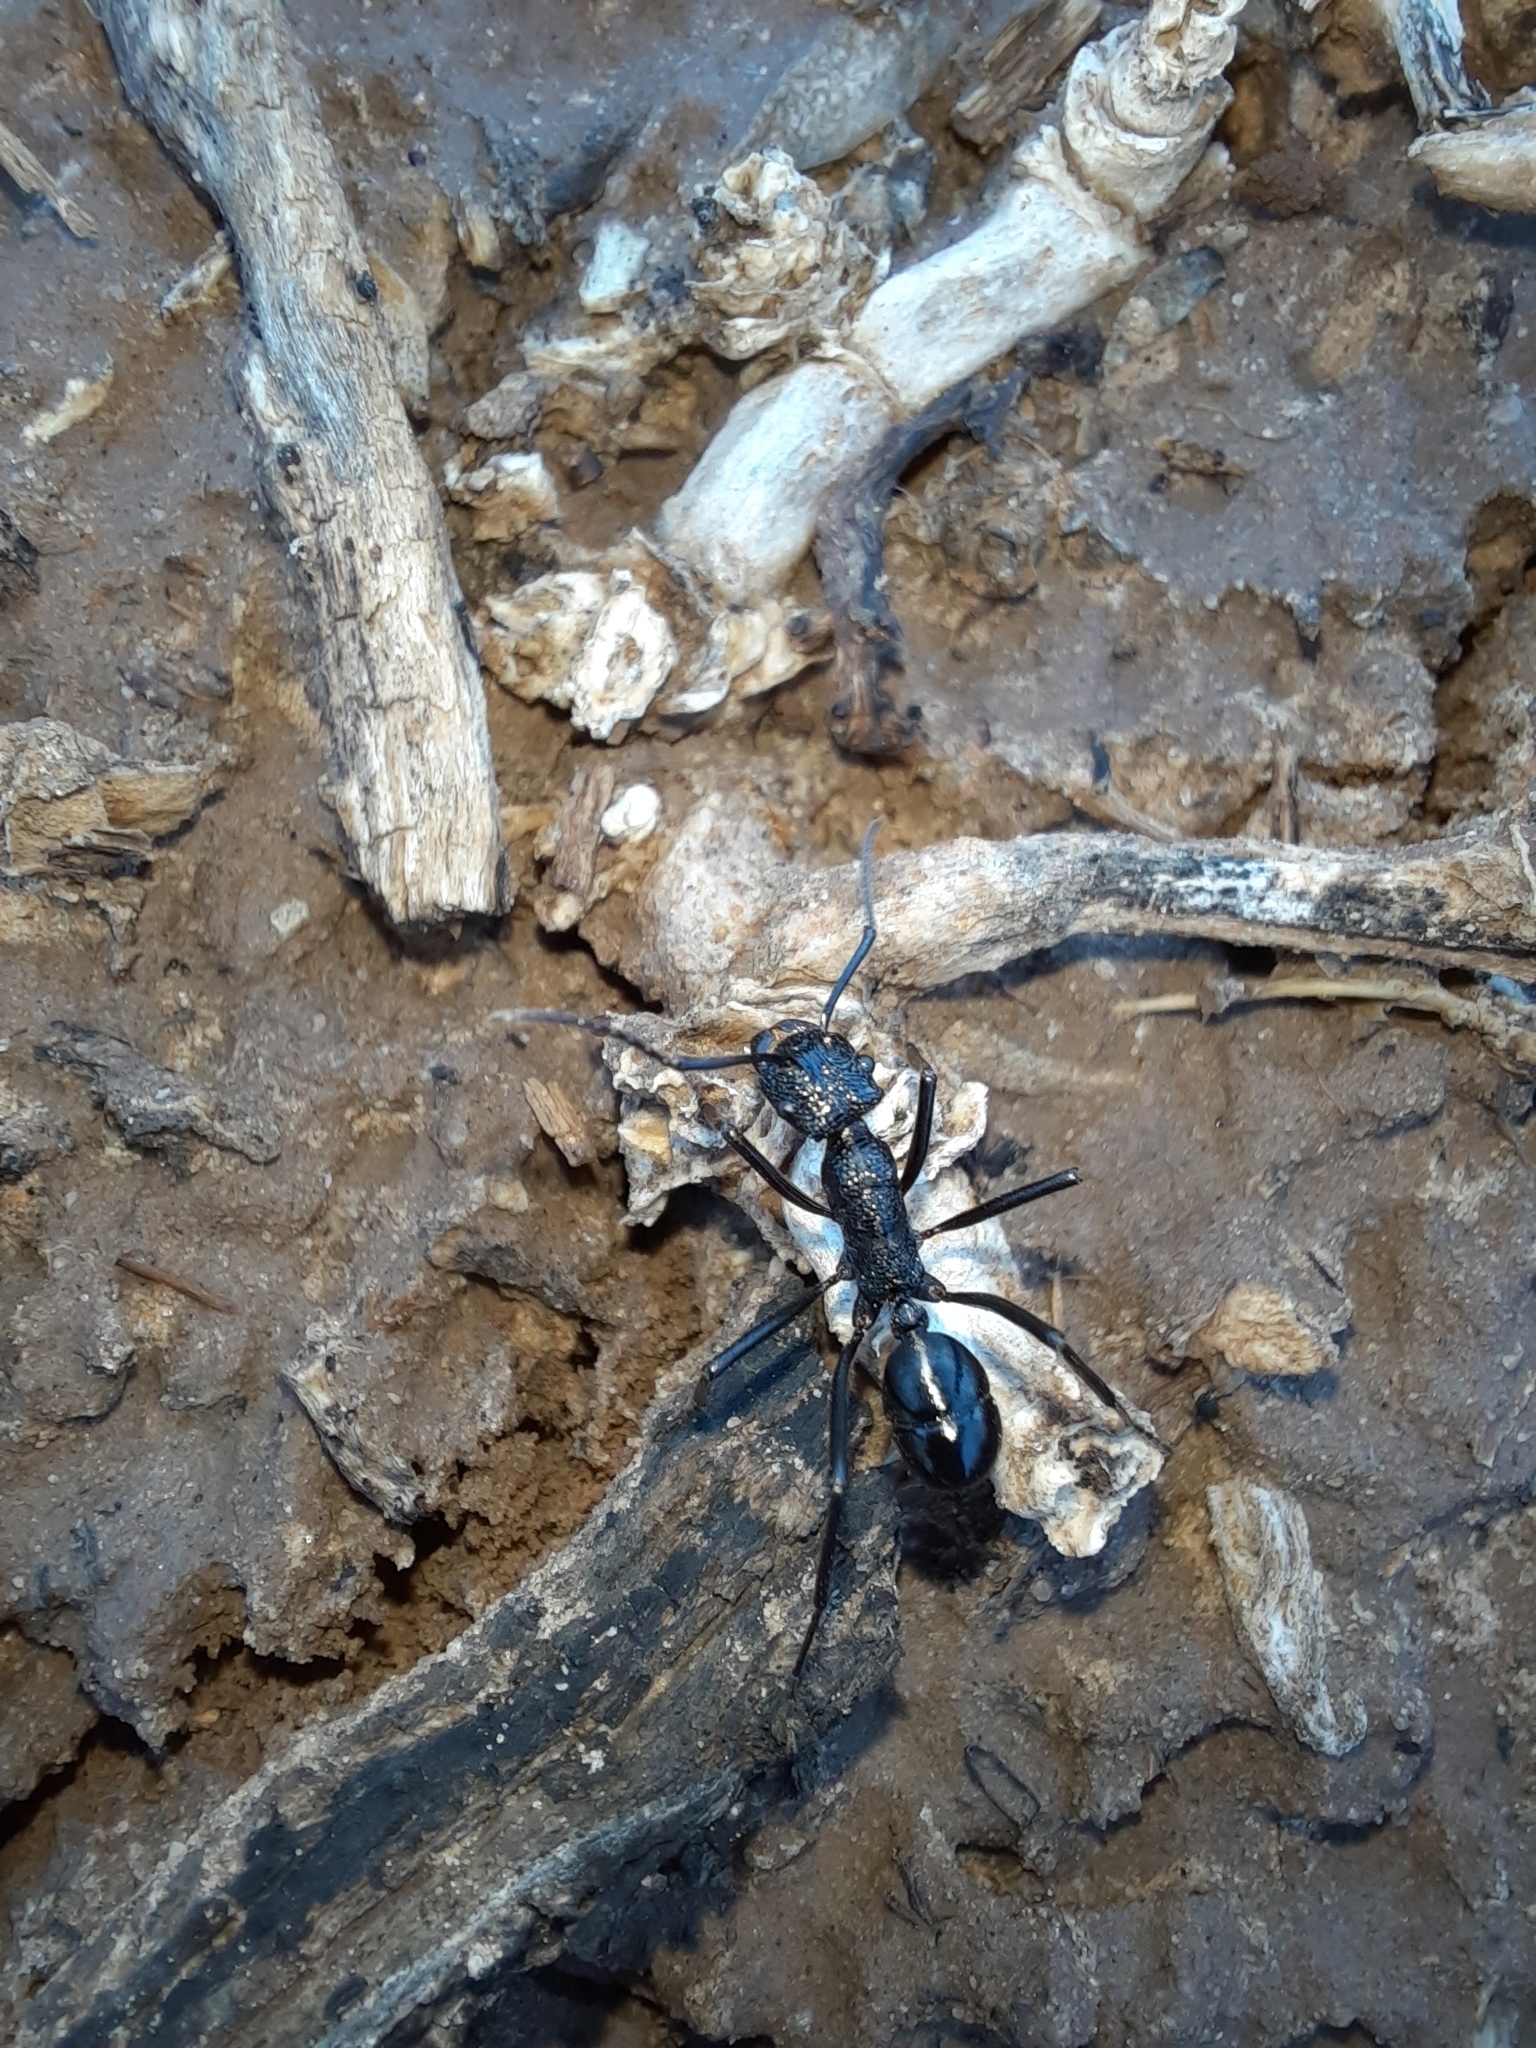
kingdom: Animalia
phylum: Arthropoda
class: Insecta
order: Hymenoptera
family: Formicidae
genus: Rhytidoponera
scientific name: Rhytidoponera mayri
